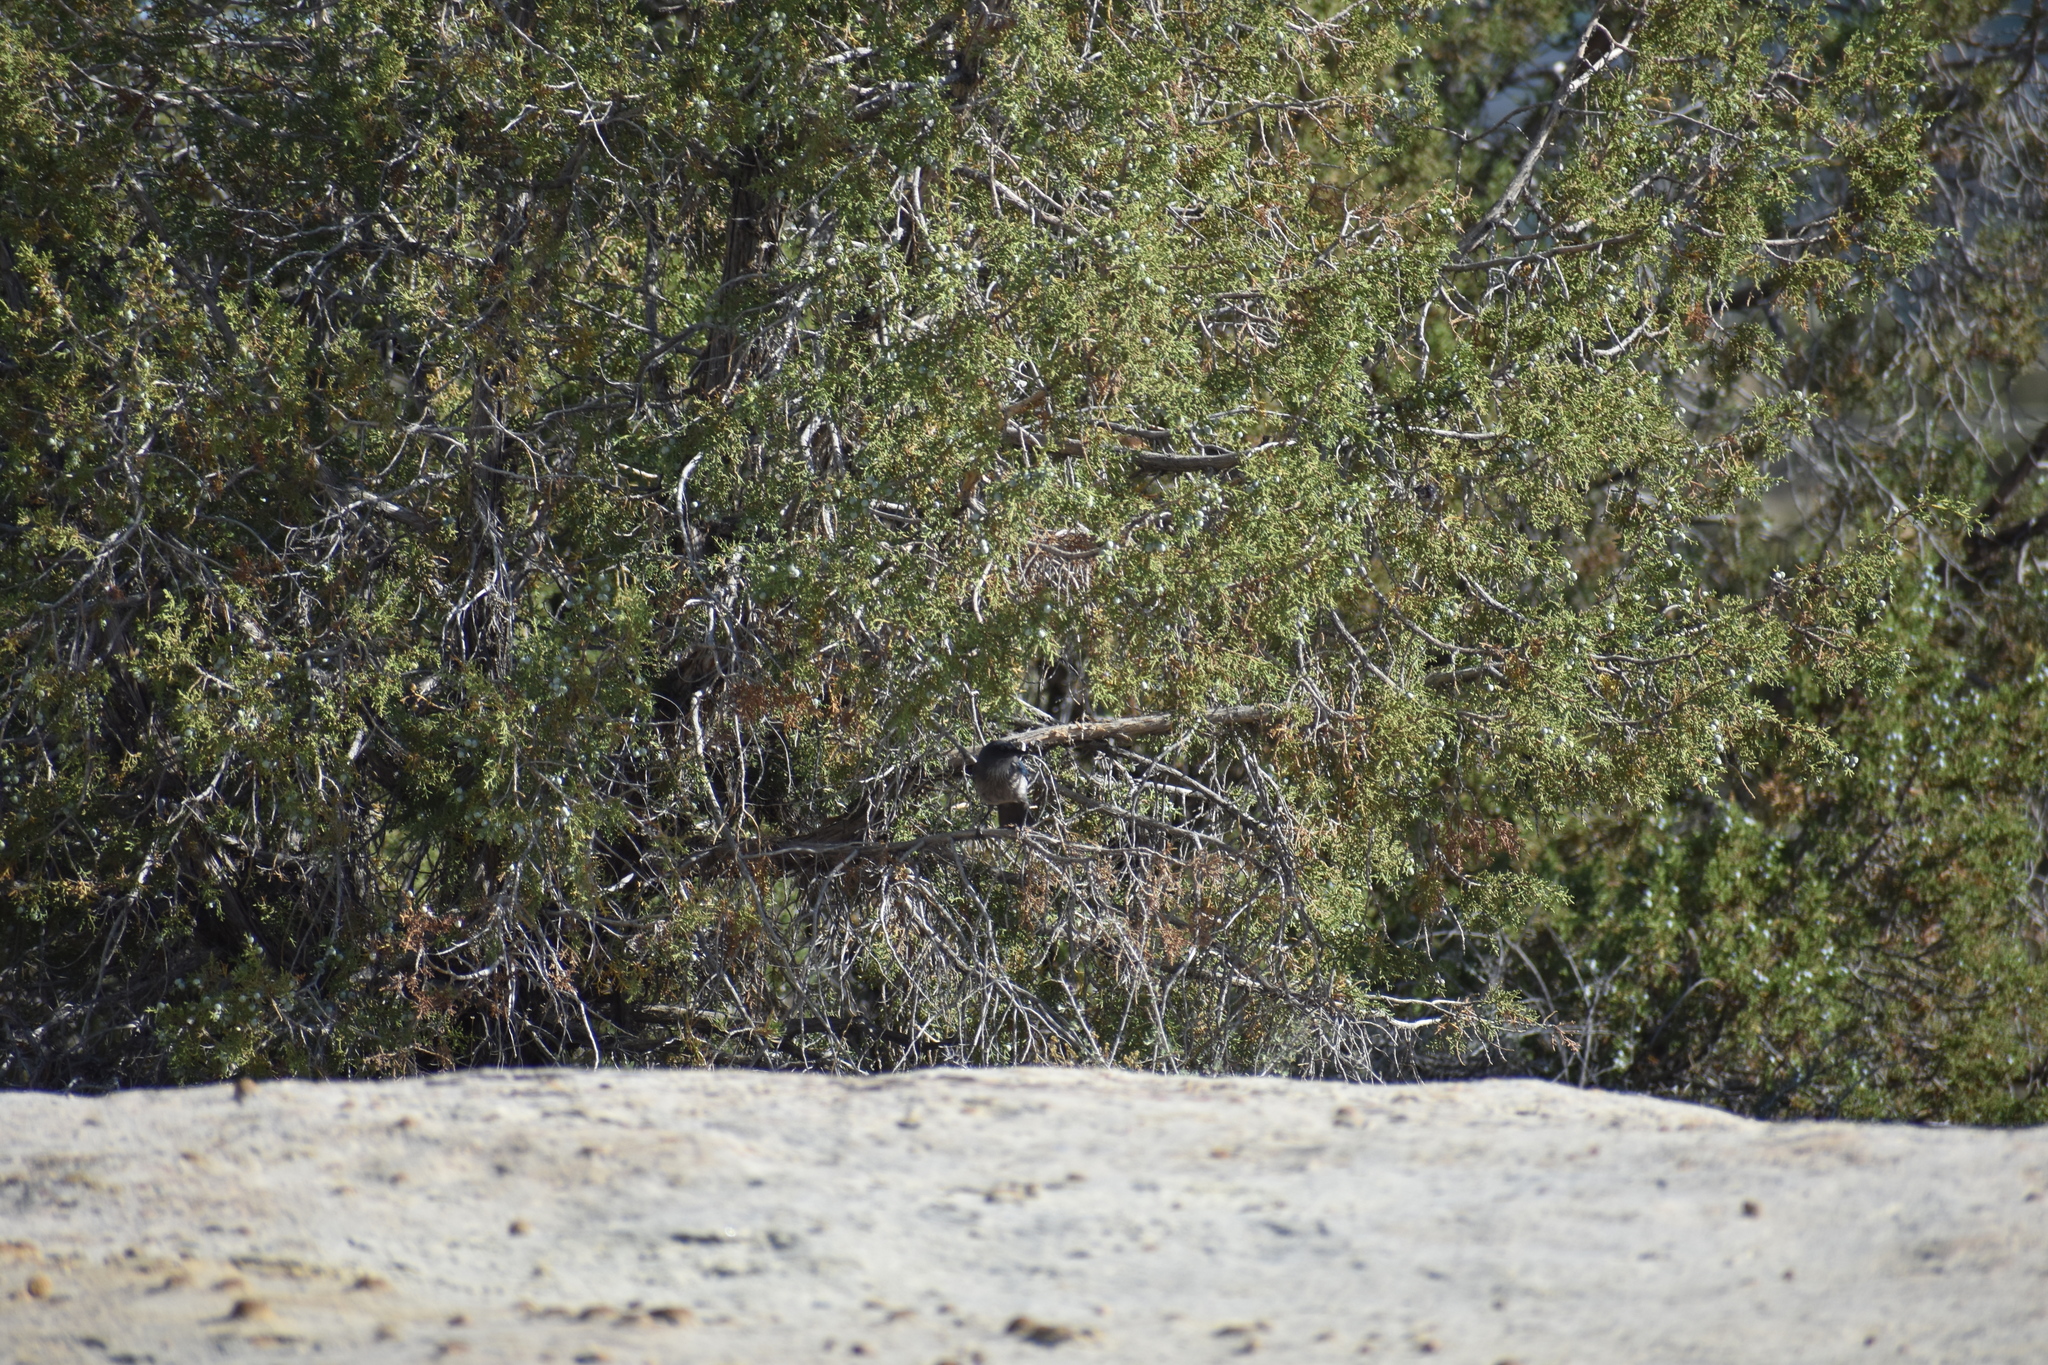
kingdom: Animalia
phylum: Chordata
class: Aves
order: Passeriformes
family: Corvidae
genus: Aphelocoma
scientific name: Aphelocoma woodhouseii
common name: Woodhouse's scrub-jay
